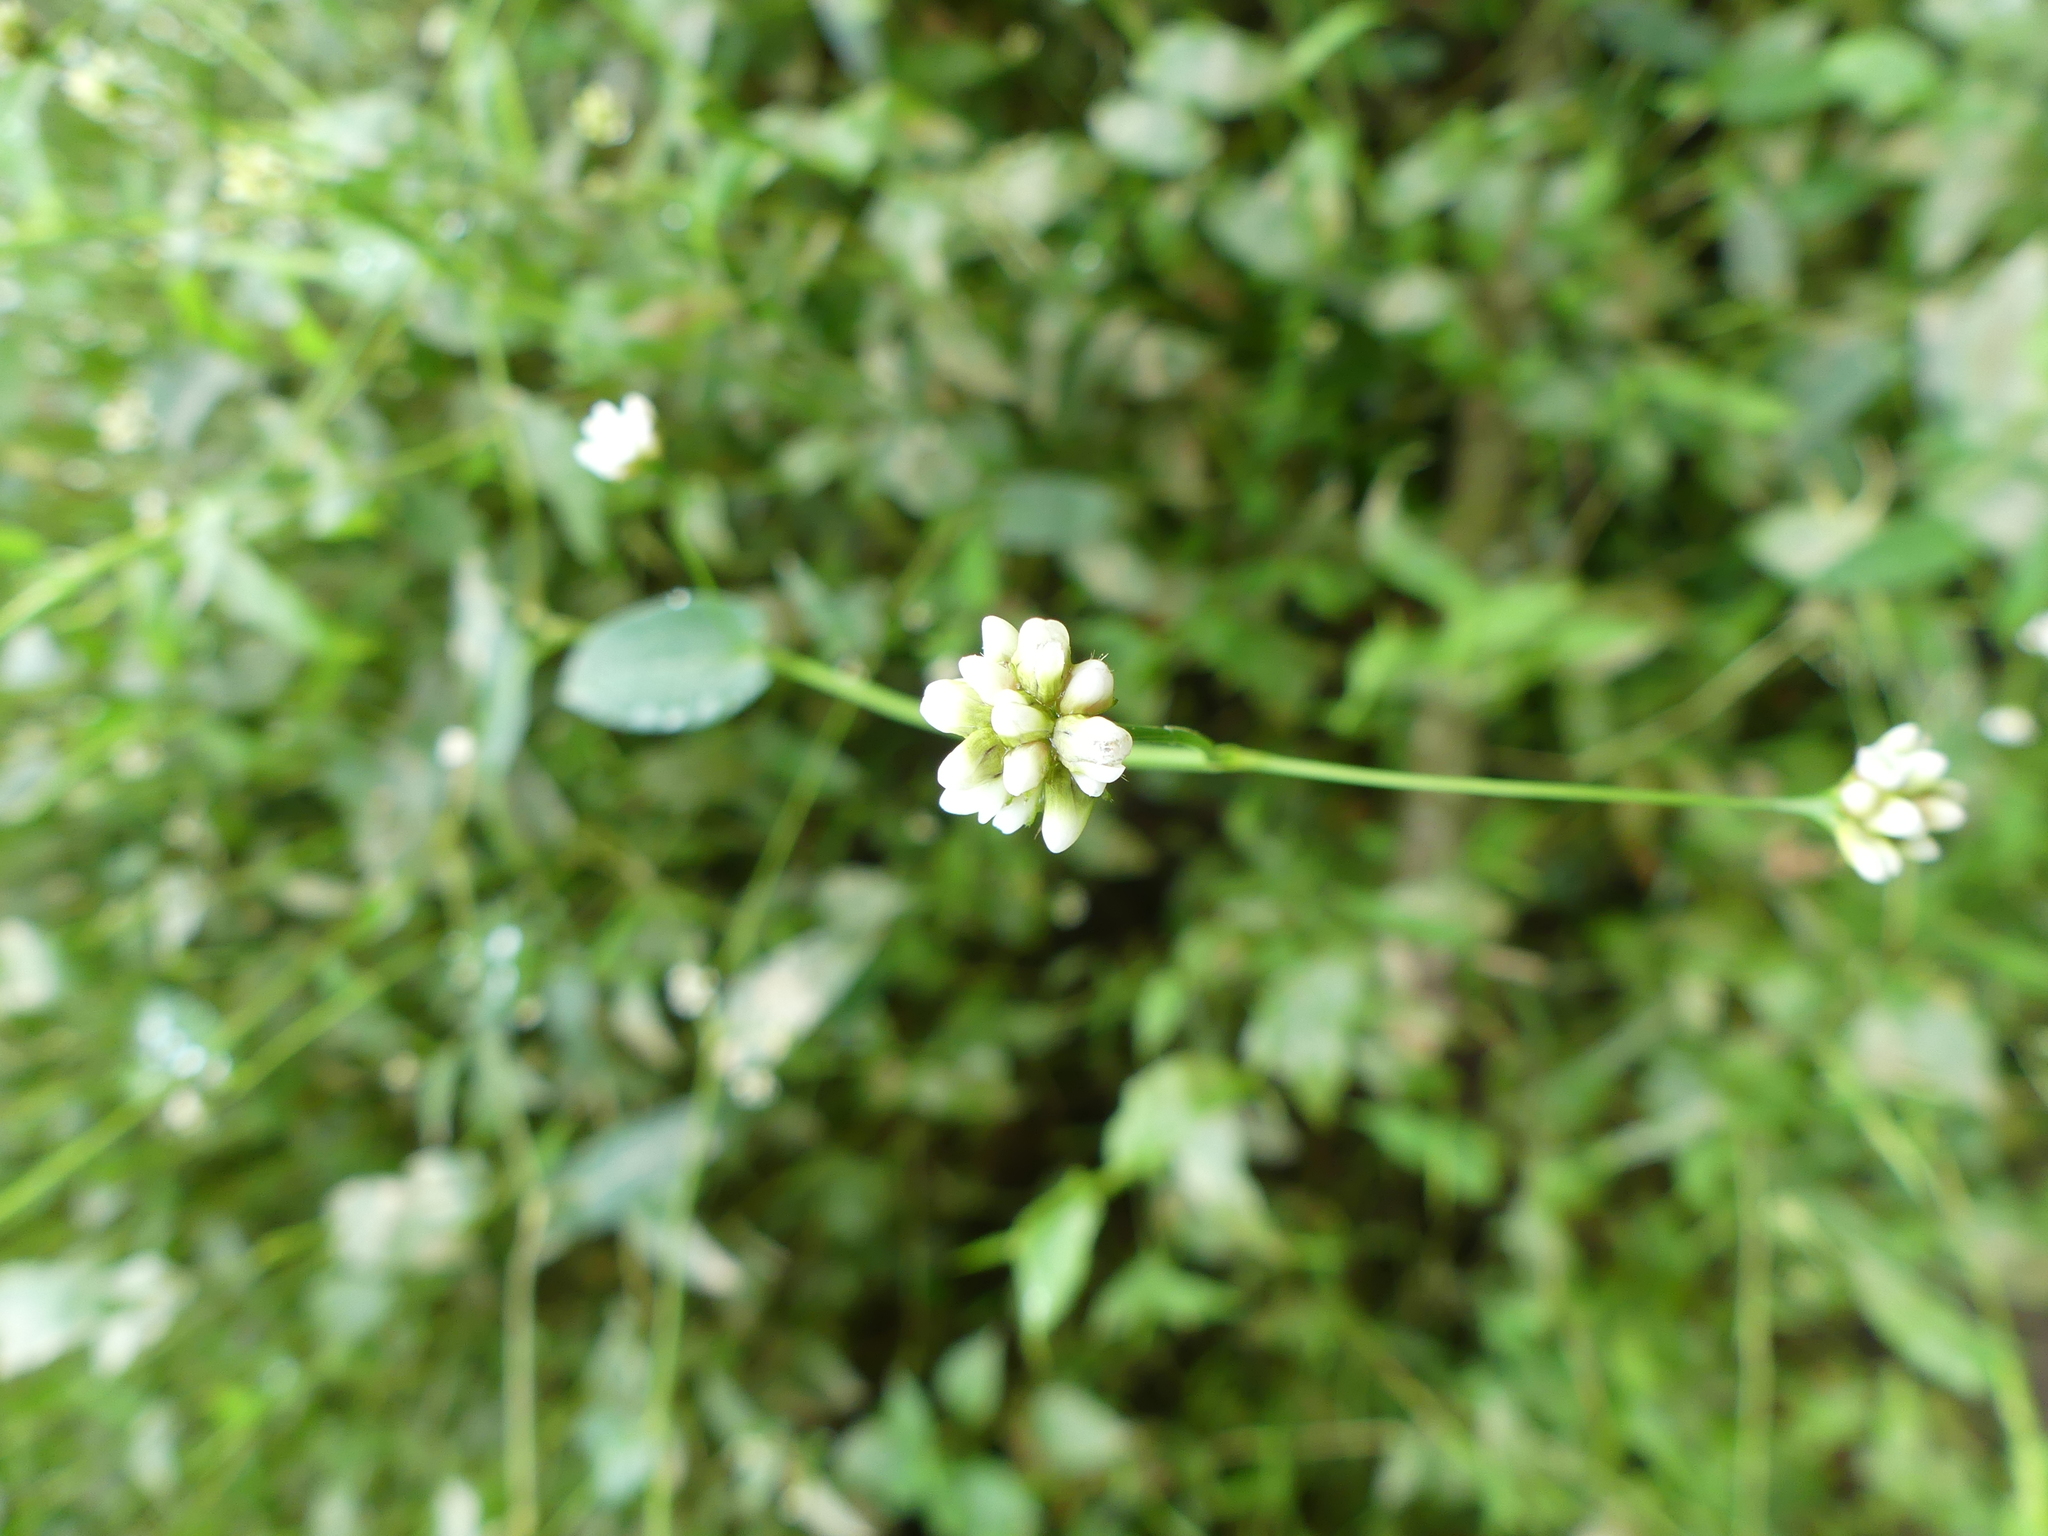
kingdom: Plantae
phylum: Tracheophyta
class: Magnoliopsida
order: Caryophyllales
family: Polygonaceae
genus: Persicaria
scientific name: Persicaria sagittata
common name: American tearthumb
